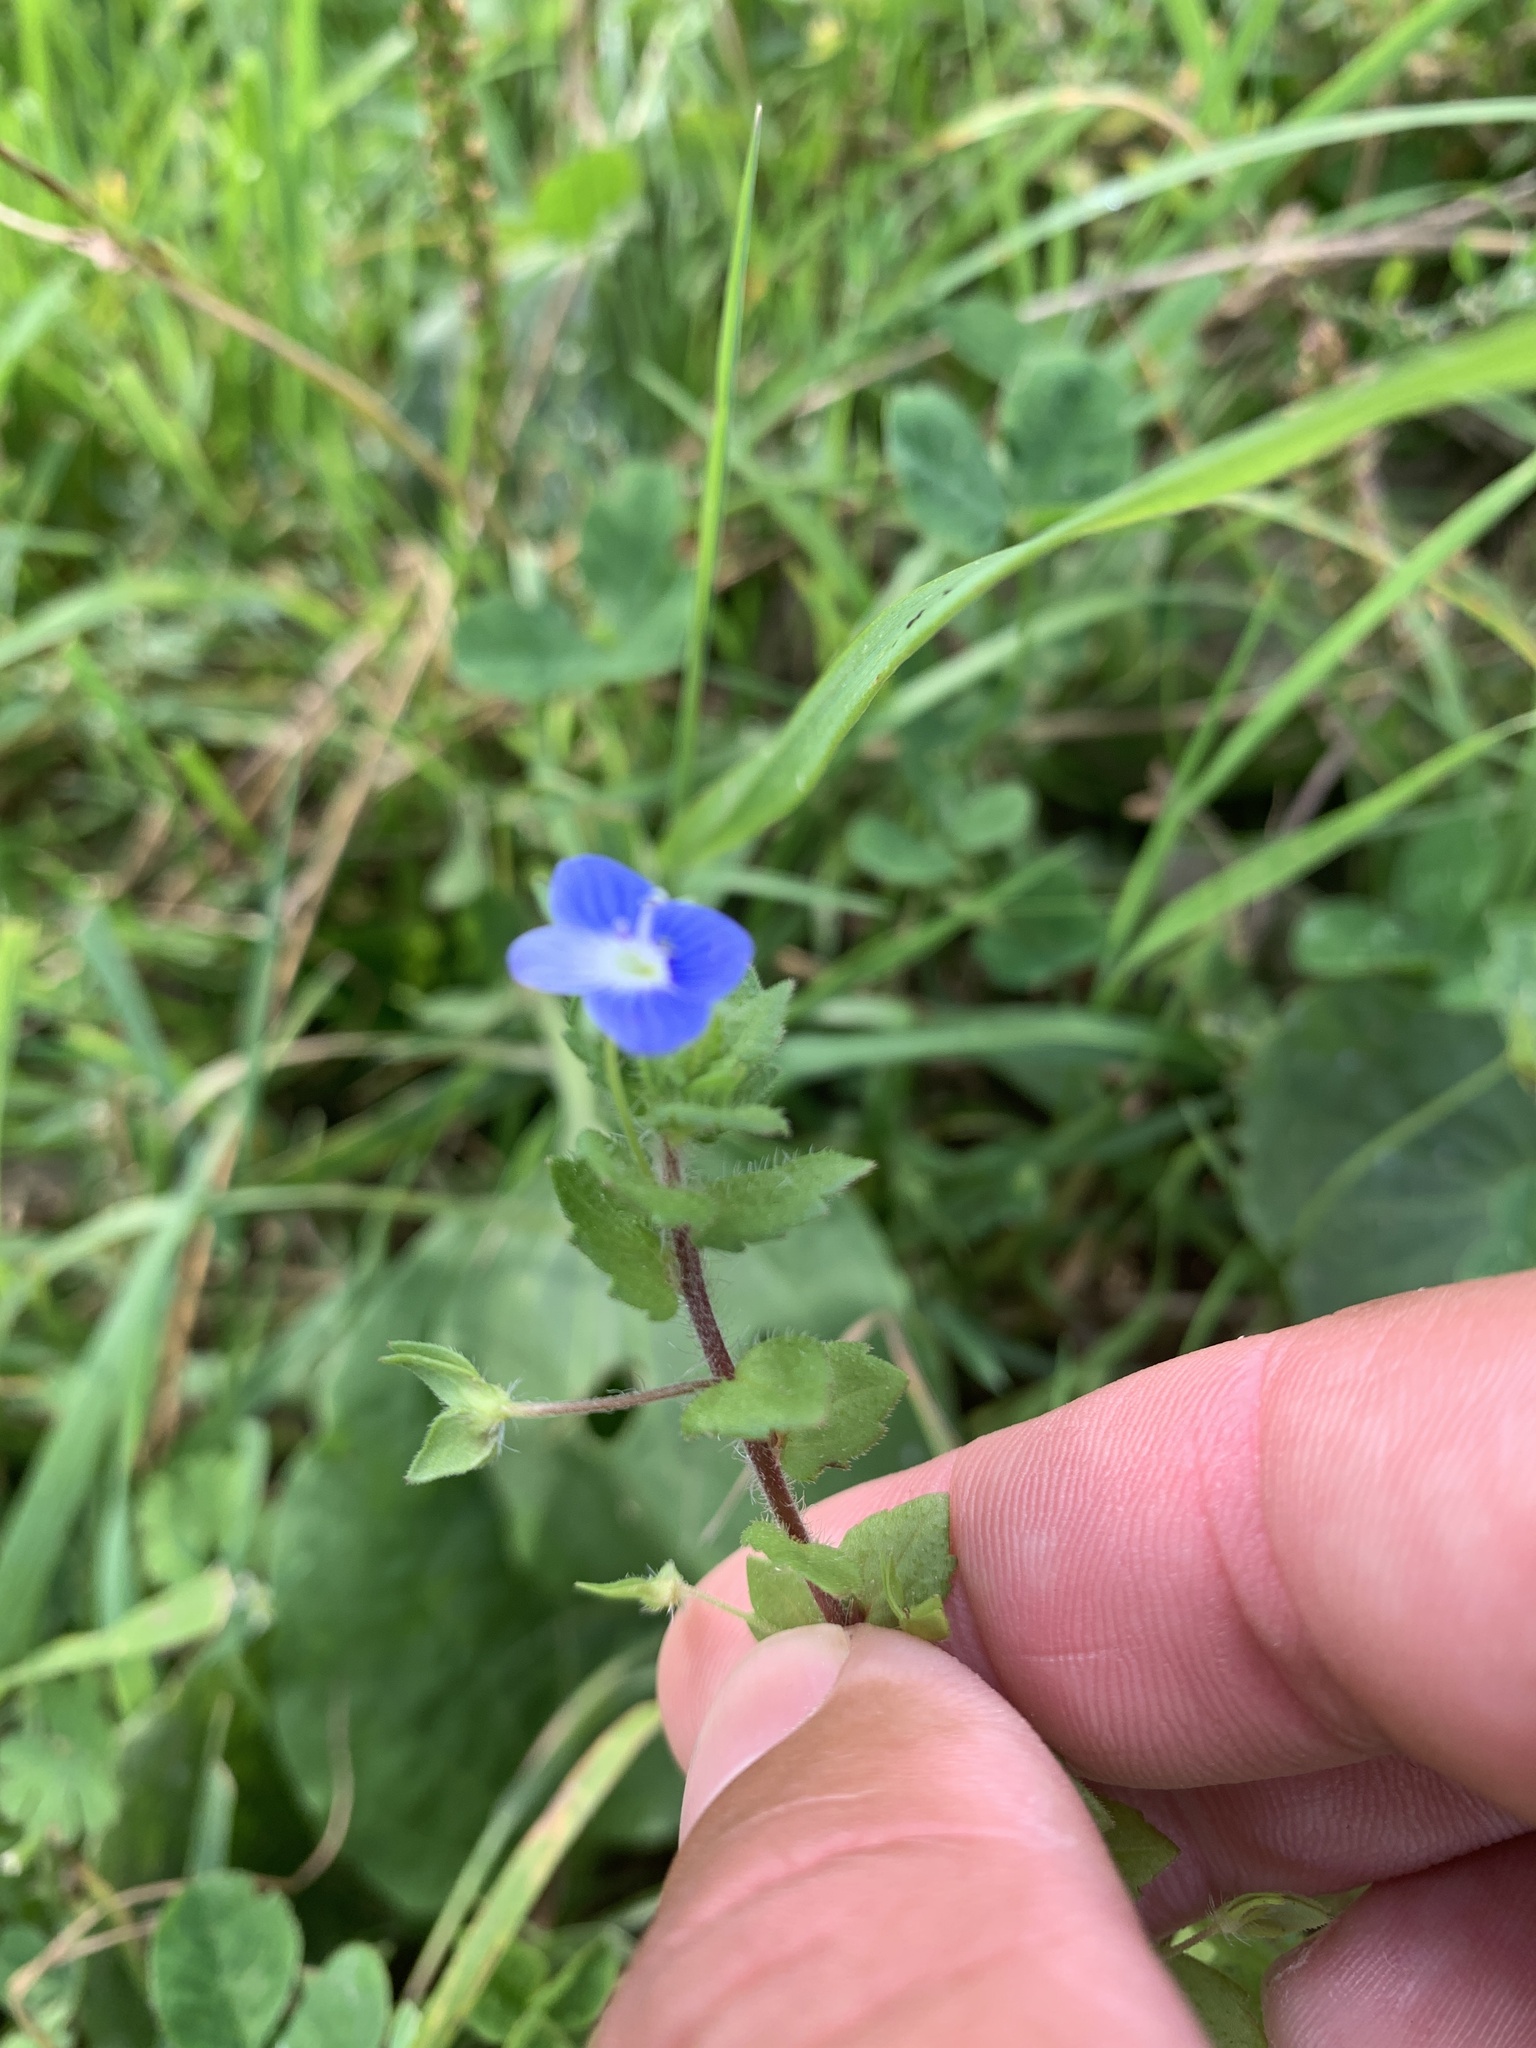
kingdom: Plantae
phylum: Tracheophyta
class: Magnoliopsida
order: Lamiales
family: Plantaginaceae
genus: Veronica
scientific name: Veronica persica
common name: Common field-speedwell
